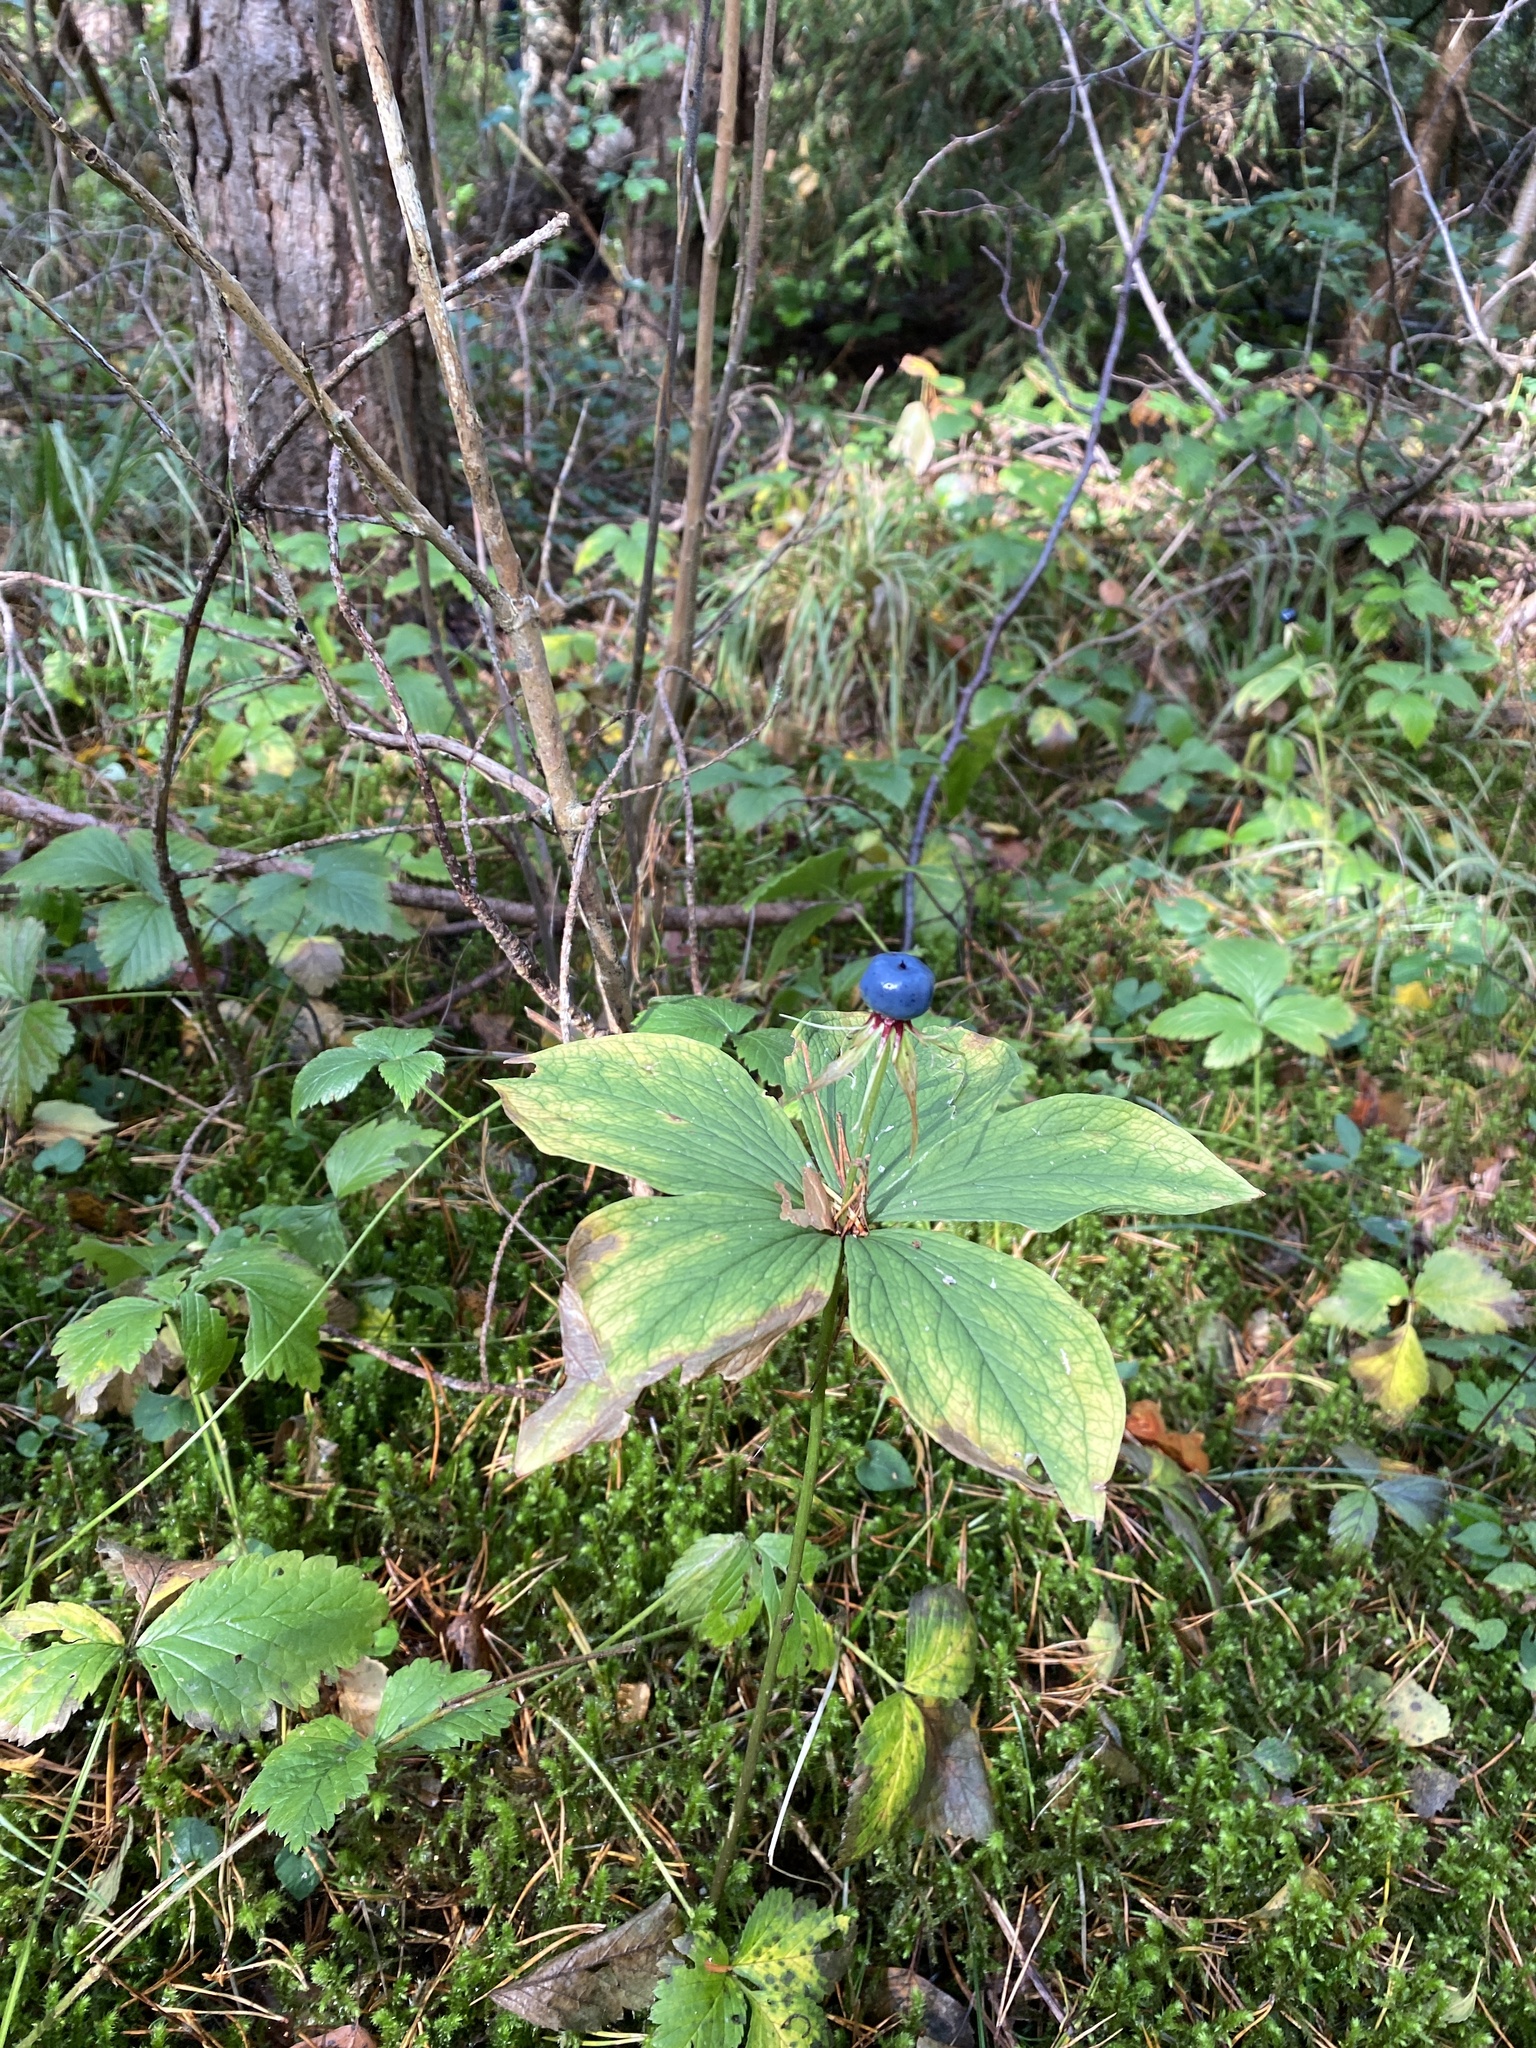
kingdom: Plantae
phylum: Tracheophyta
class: Liliopsida
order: Liliales
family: Melanthiaceae
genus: Paris
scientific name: Paris quadrifolia
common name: Herb-paris
